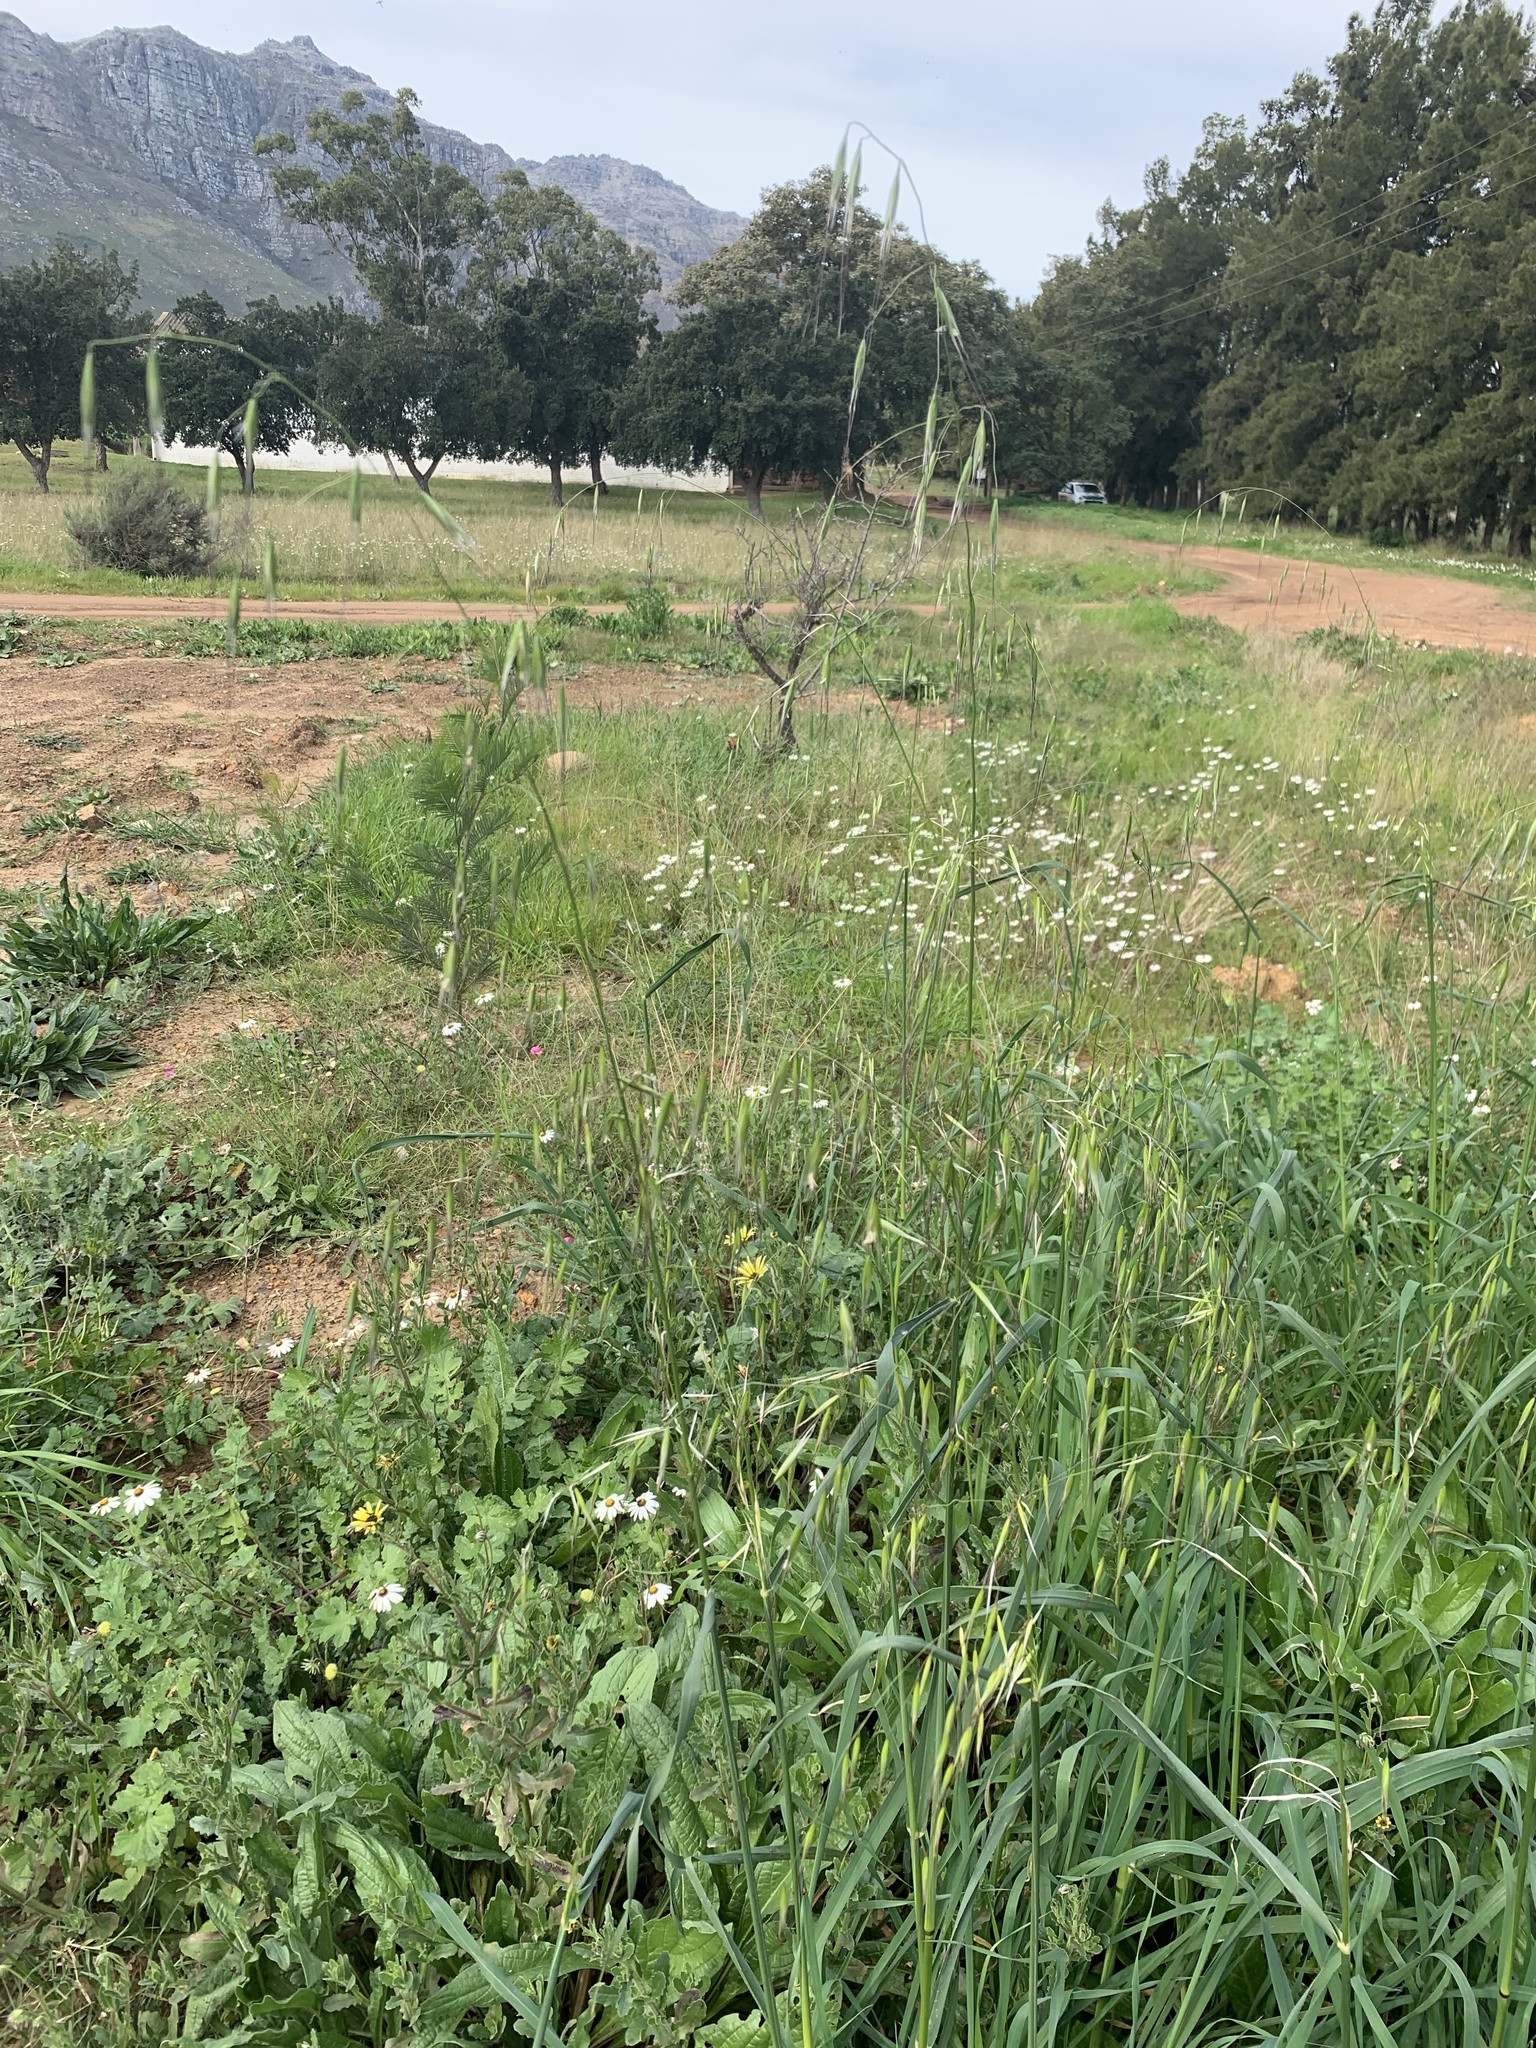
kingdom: Plantae
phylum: Tracheophyta
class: Liliopsida
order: Poales
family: Poaceae
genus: Avena
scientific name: Avena fatua
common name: Wild oat
